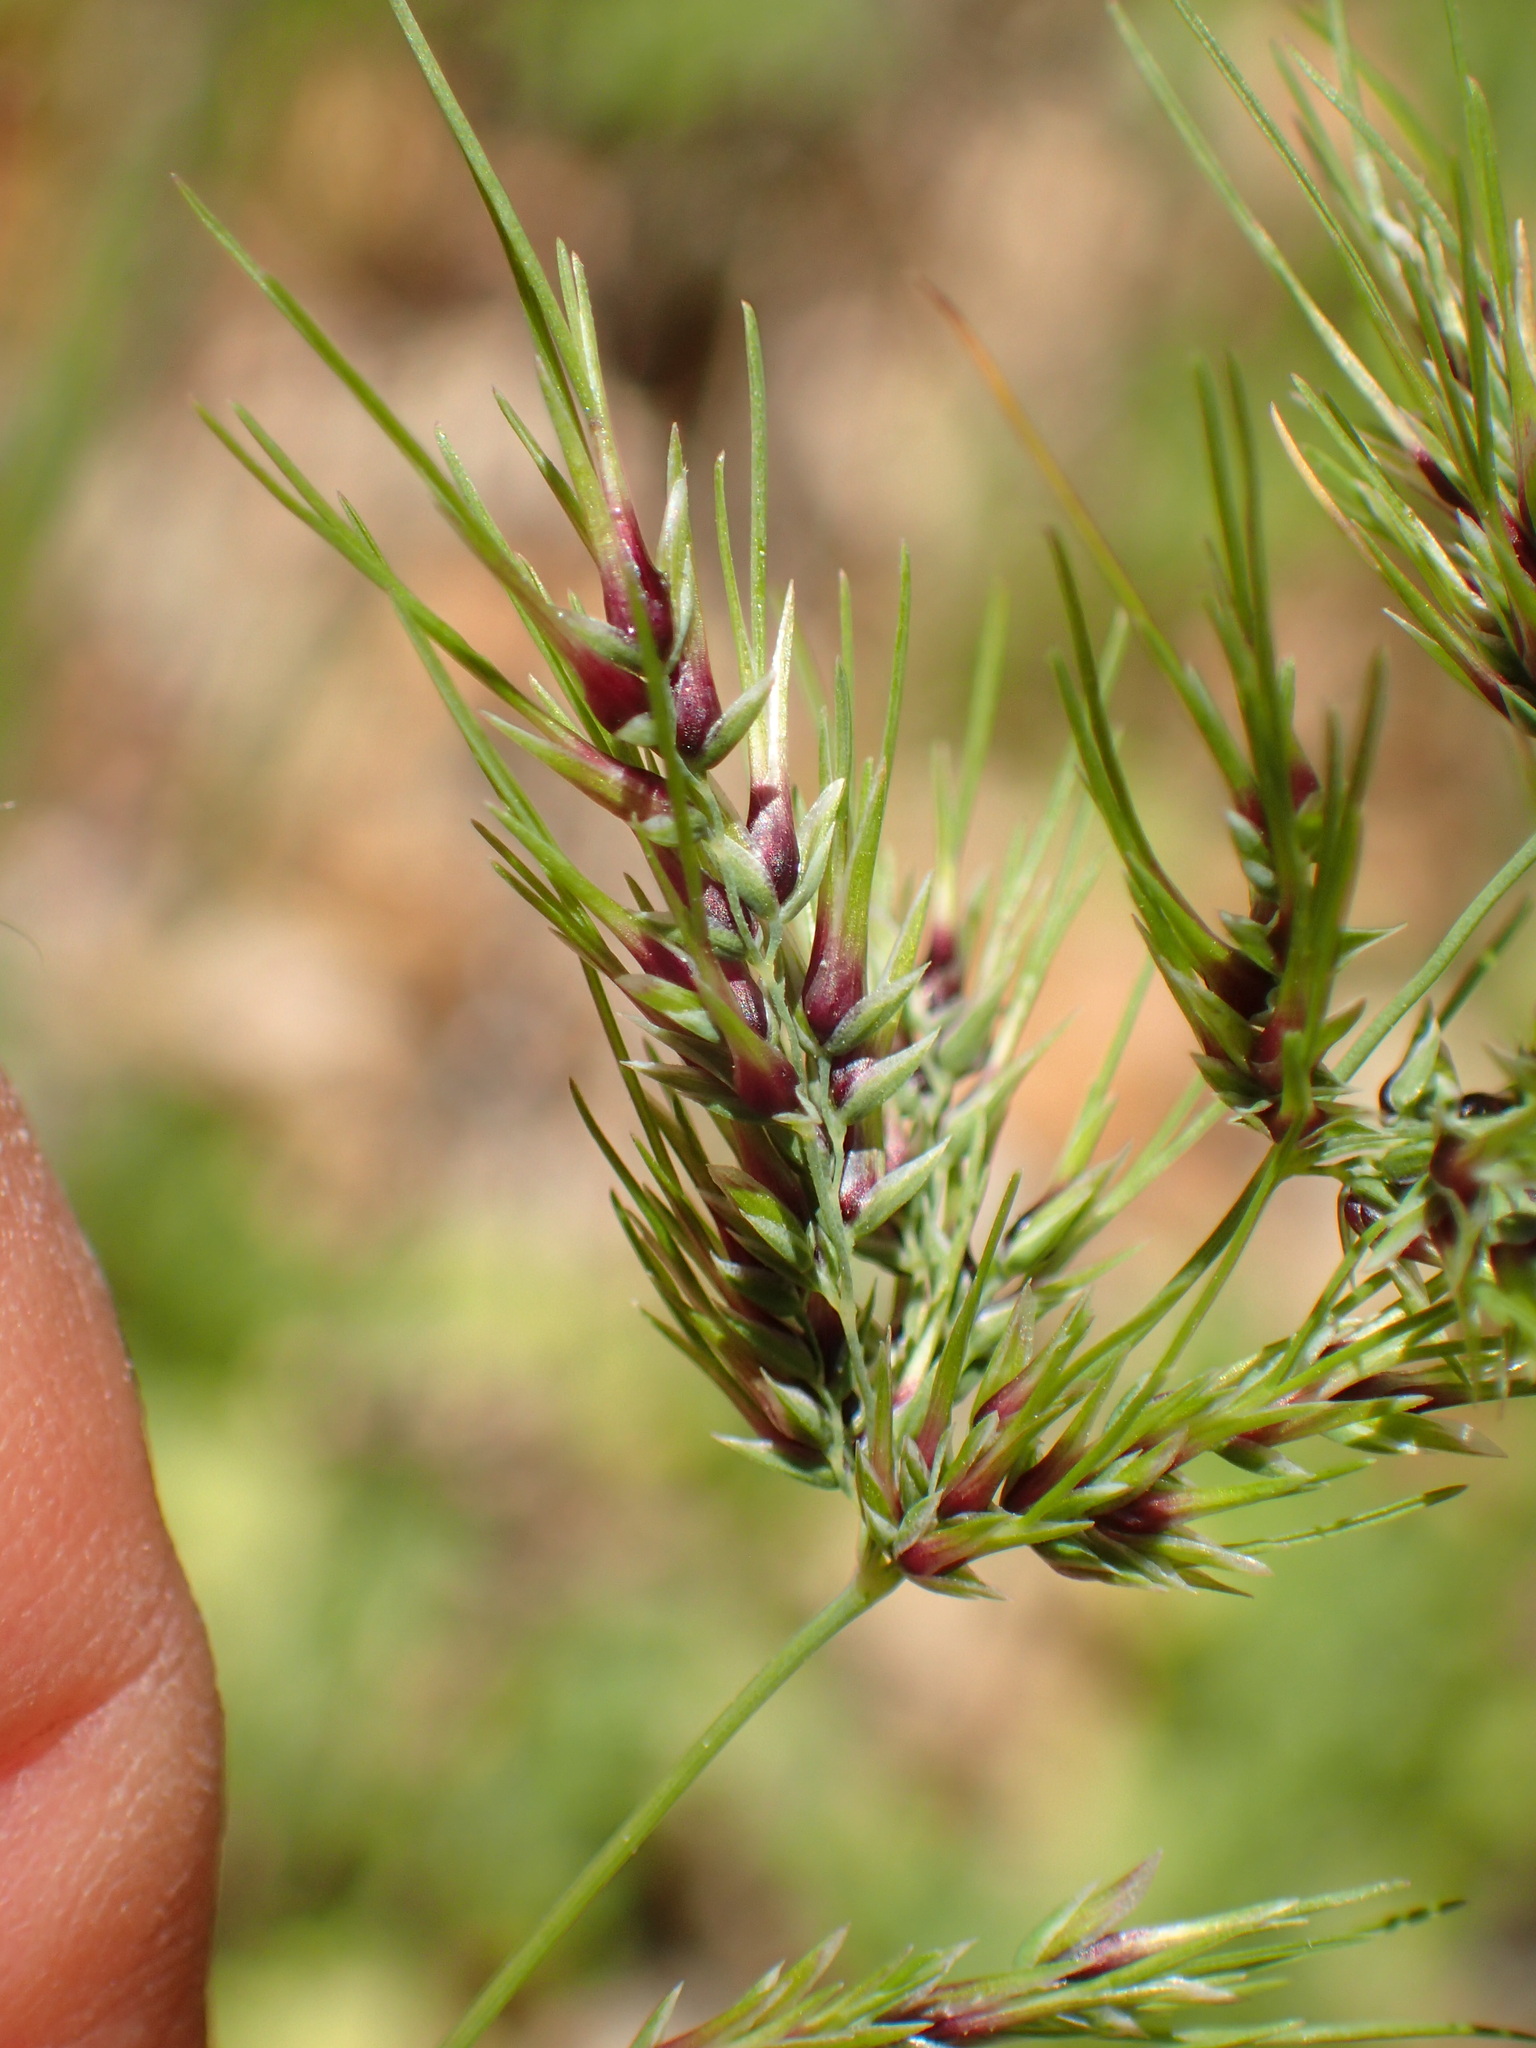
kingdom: Plantae
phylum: Tracheophyta
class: Liliopsida
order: Poales
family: Poaceae
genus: Poa
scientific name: Poa bulbosa
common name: Bulbous bluegrass
